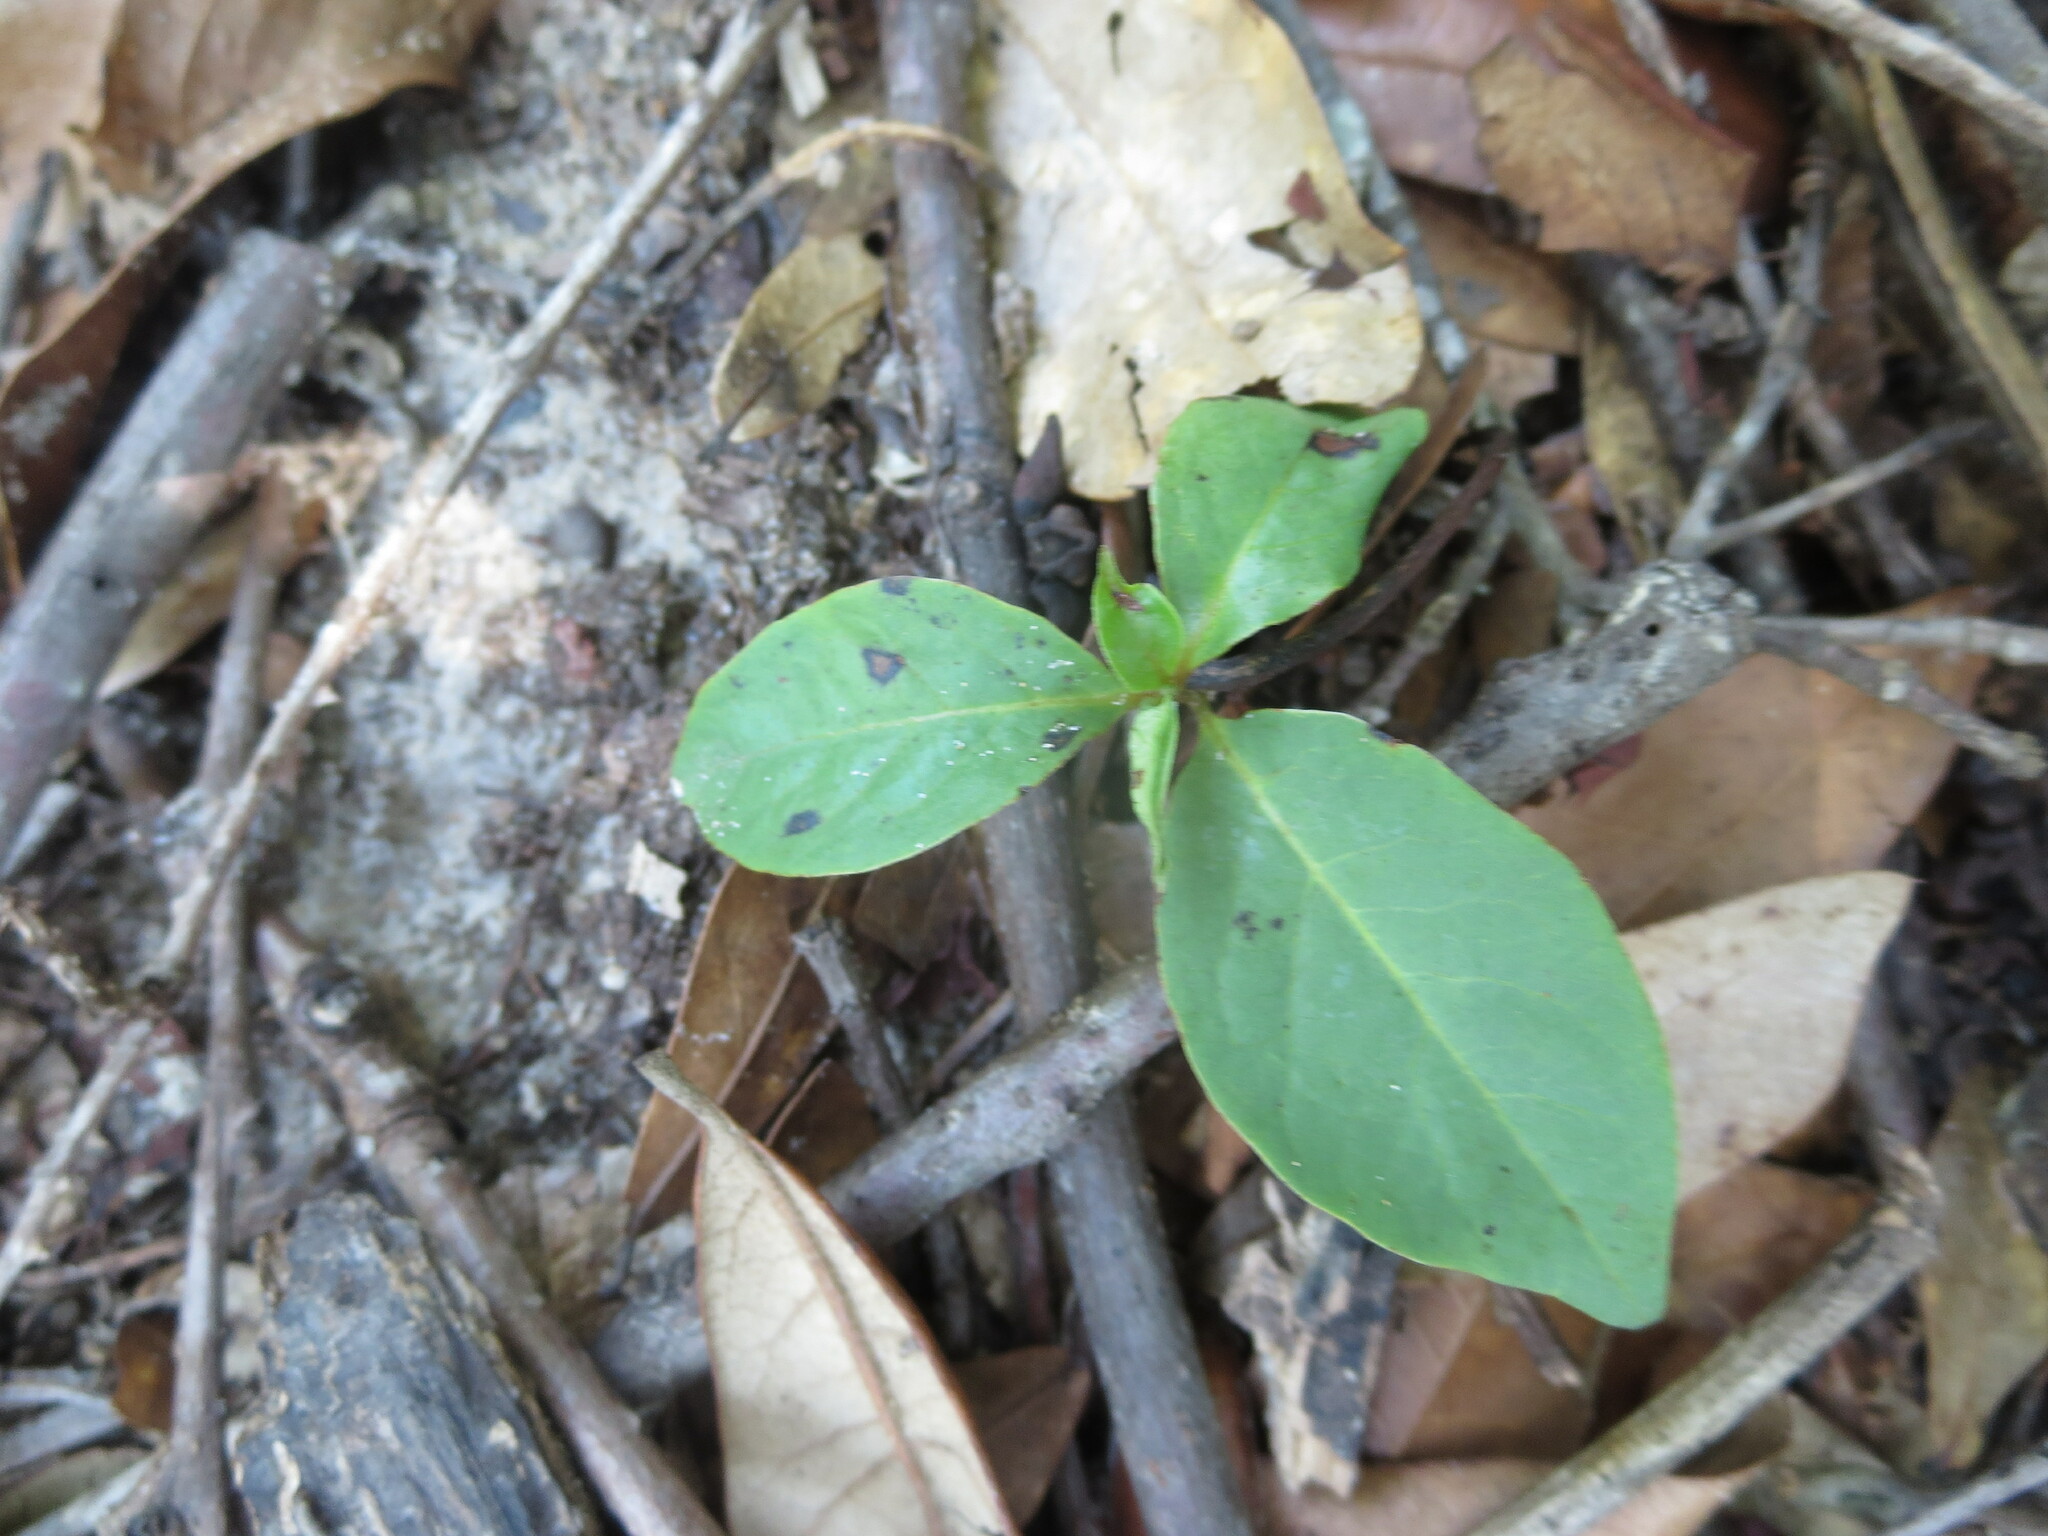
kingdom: Plantae
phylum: Tracheophyta
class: Magnoliopsida
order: Ericales
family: Ebenaceae
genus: Diospyros
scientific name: Diospyros virginiana
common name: Persimmon
